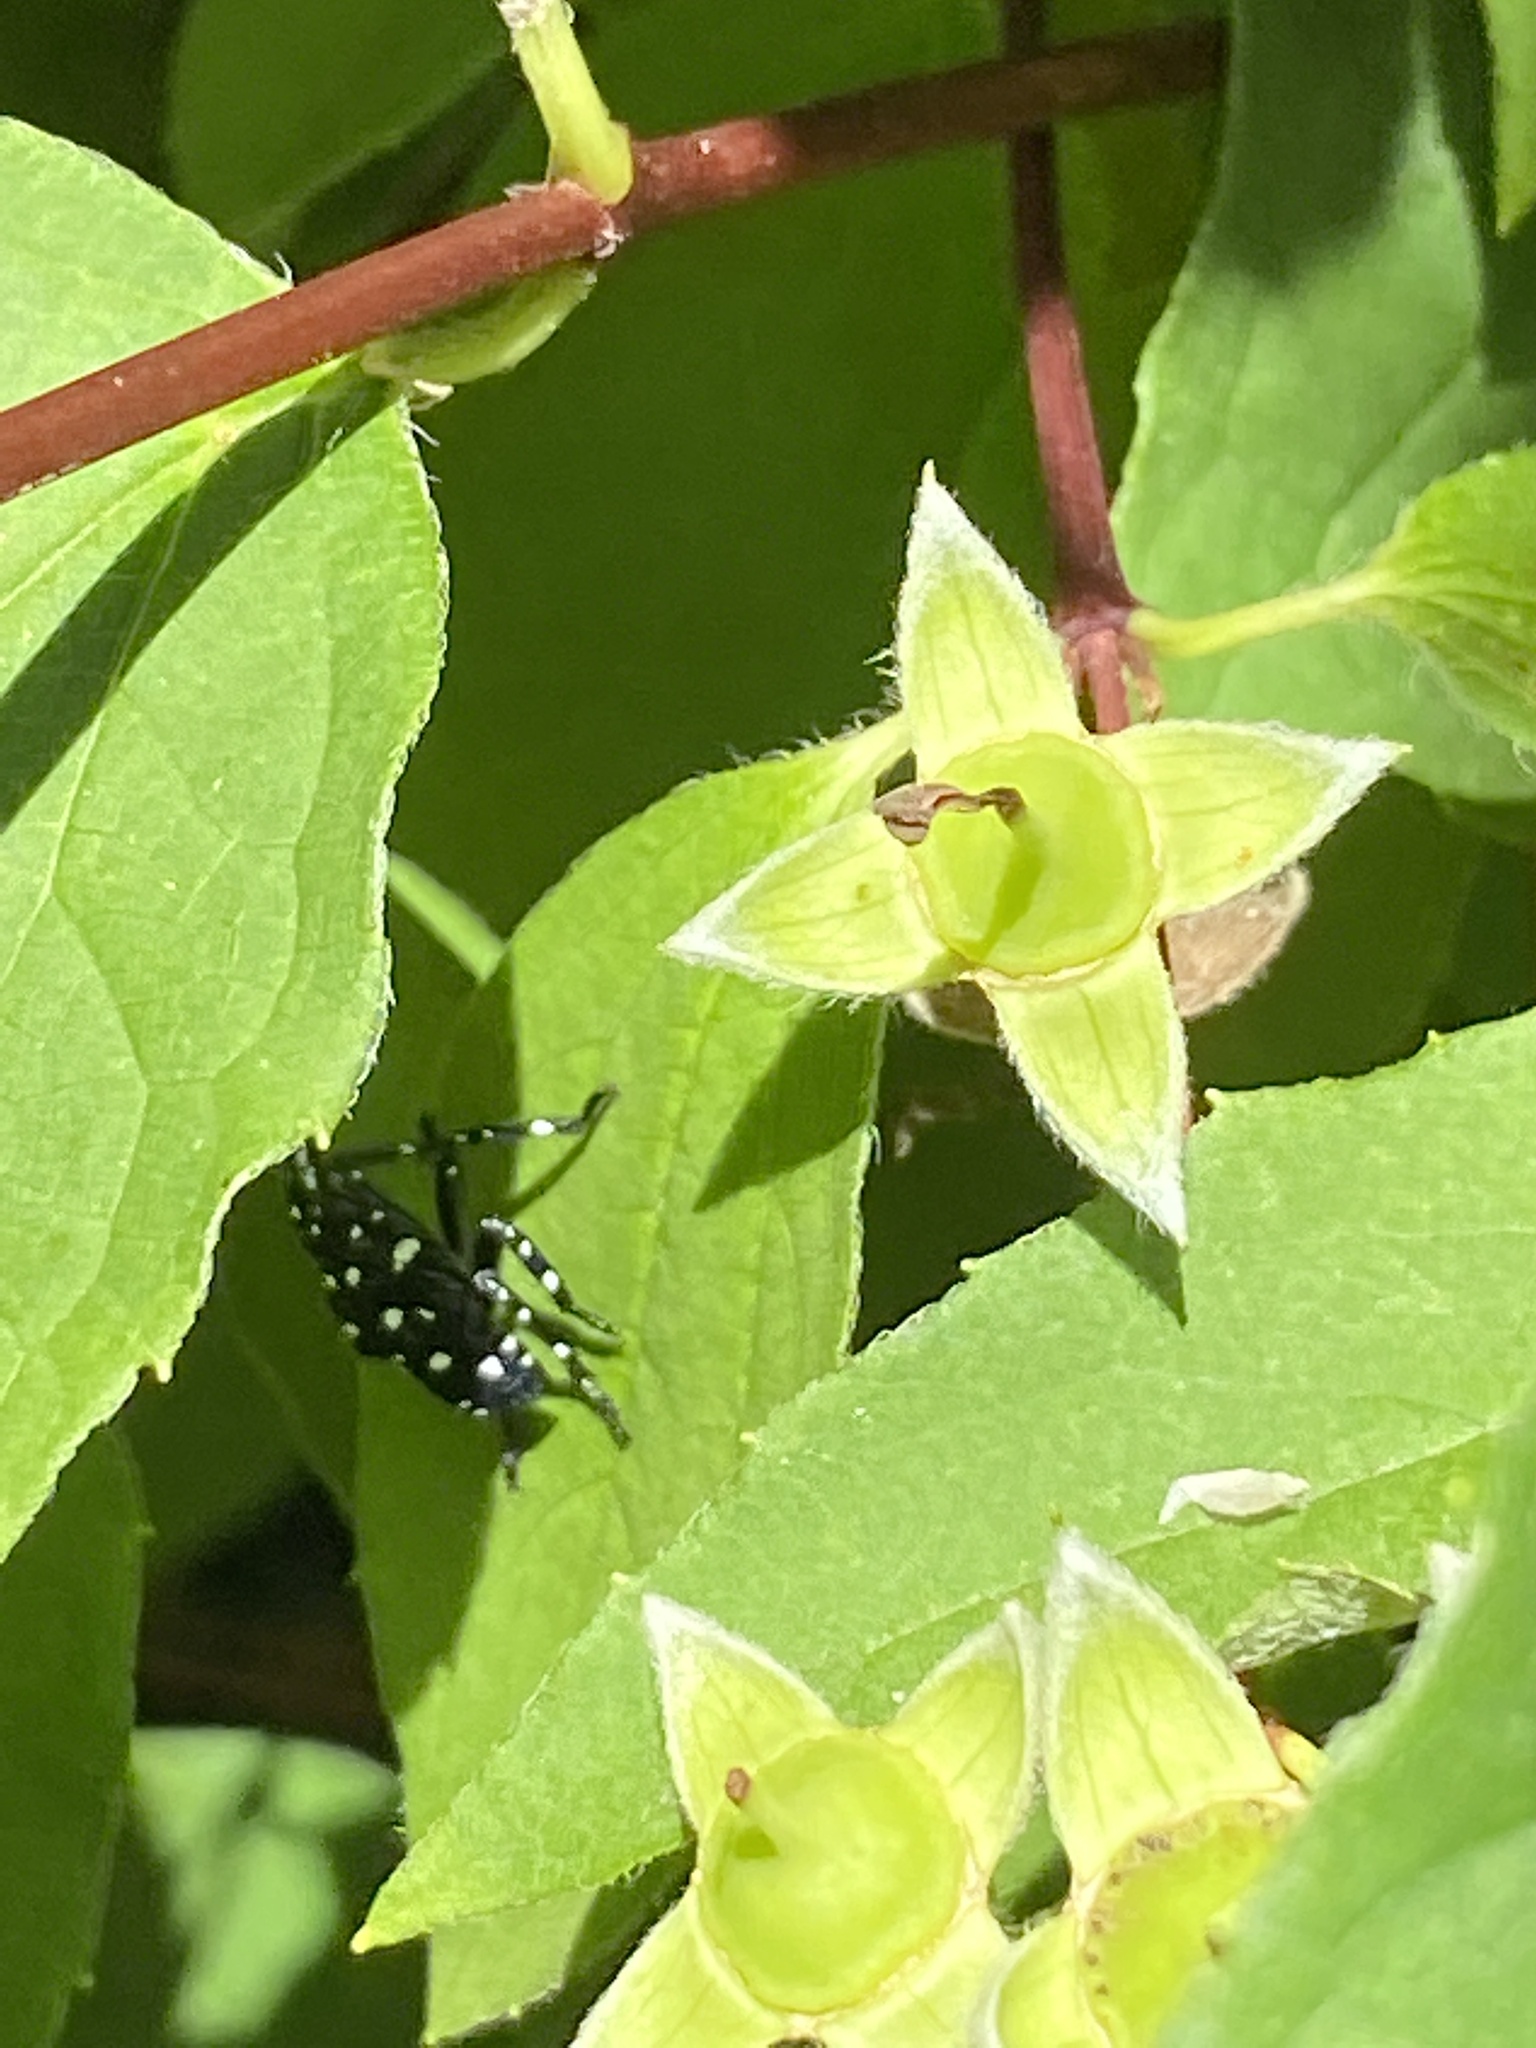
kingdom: Animalia
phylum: Arthropoda
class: Insecta
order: Hemiptera
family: Fulgoridae
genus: Lycorma
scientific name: Lycorma delicatula
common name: Spotted lanternfly
